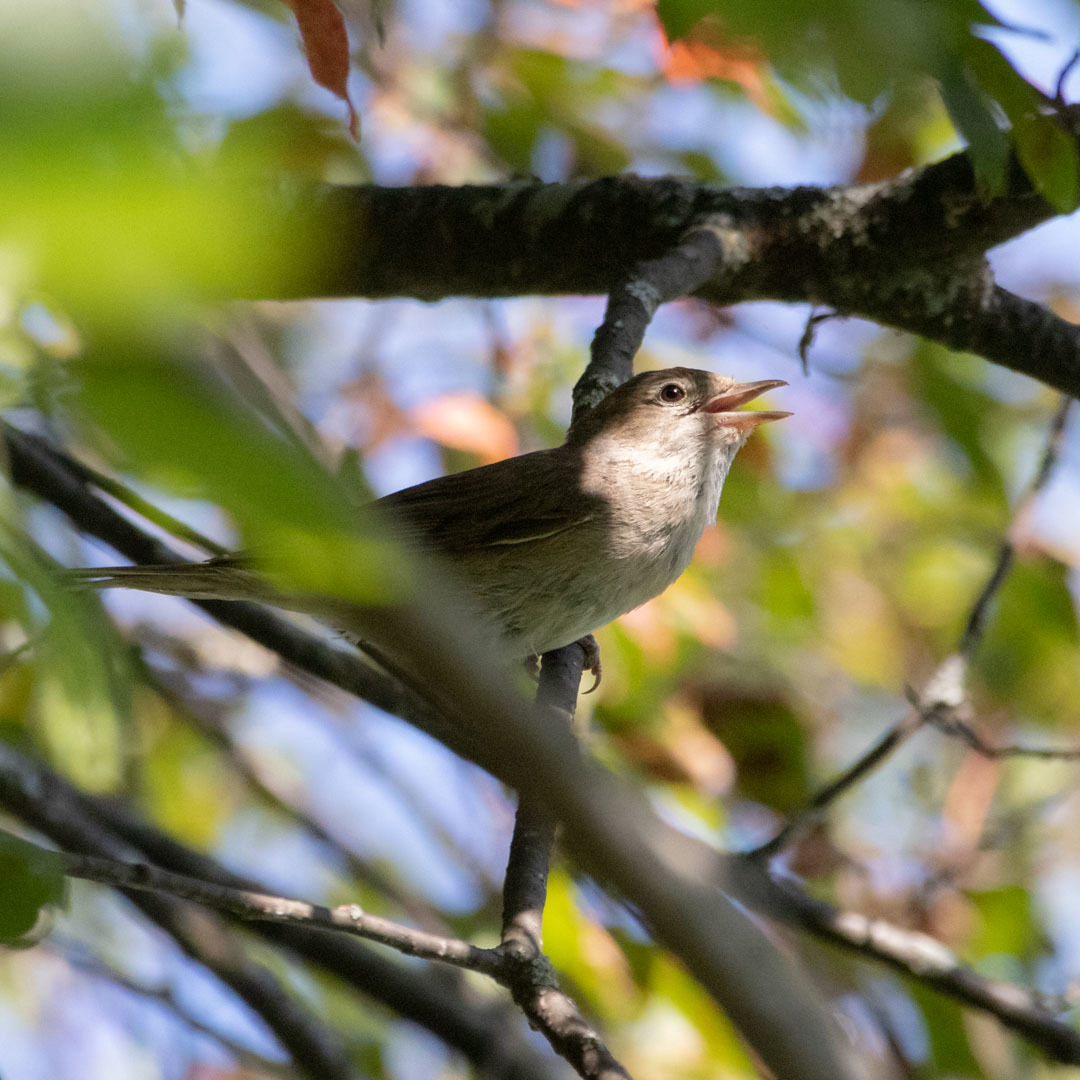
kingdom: Animalia
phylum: Chordata
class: Aves
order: Passeriformes
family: Sylviidae
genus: Sylvia
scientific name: Sylvia borin
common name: Garden warbler
